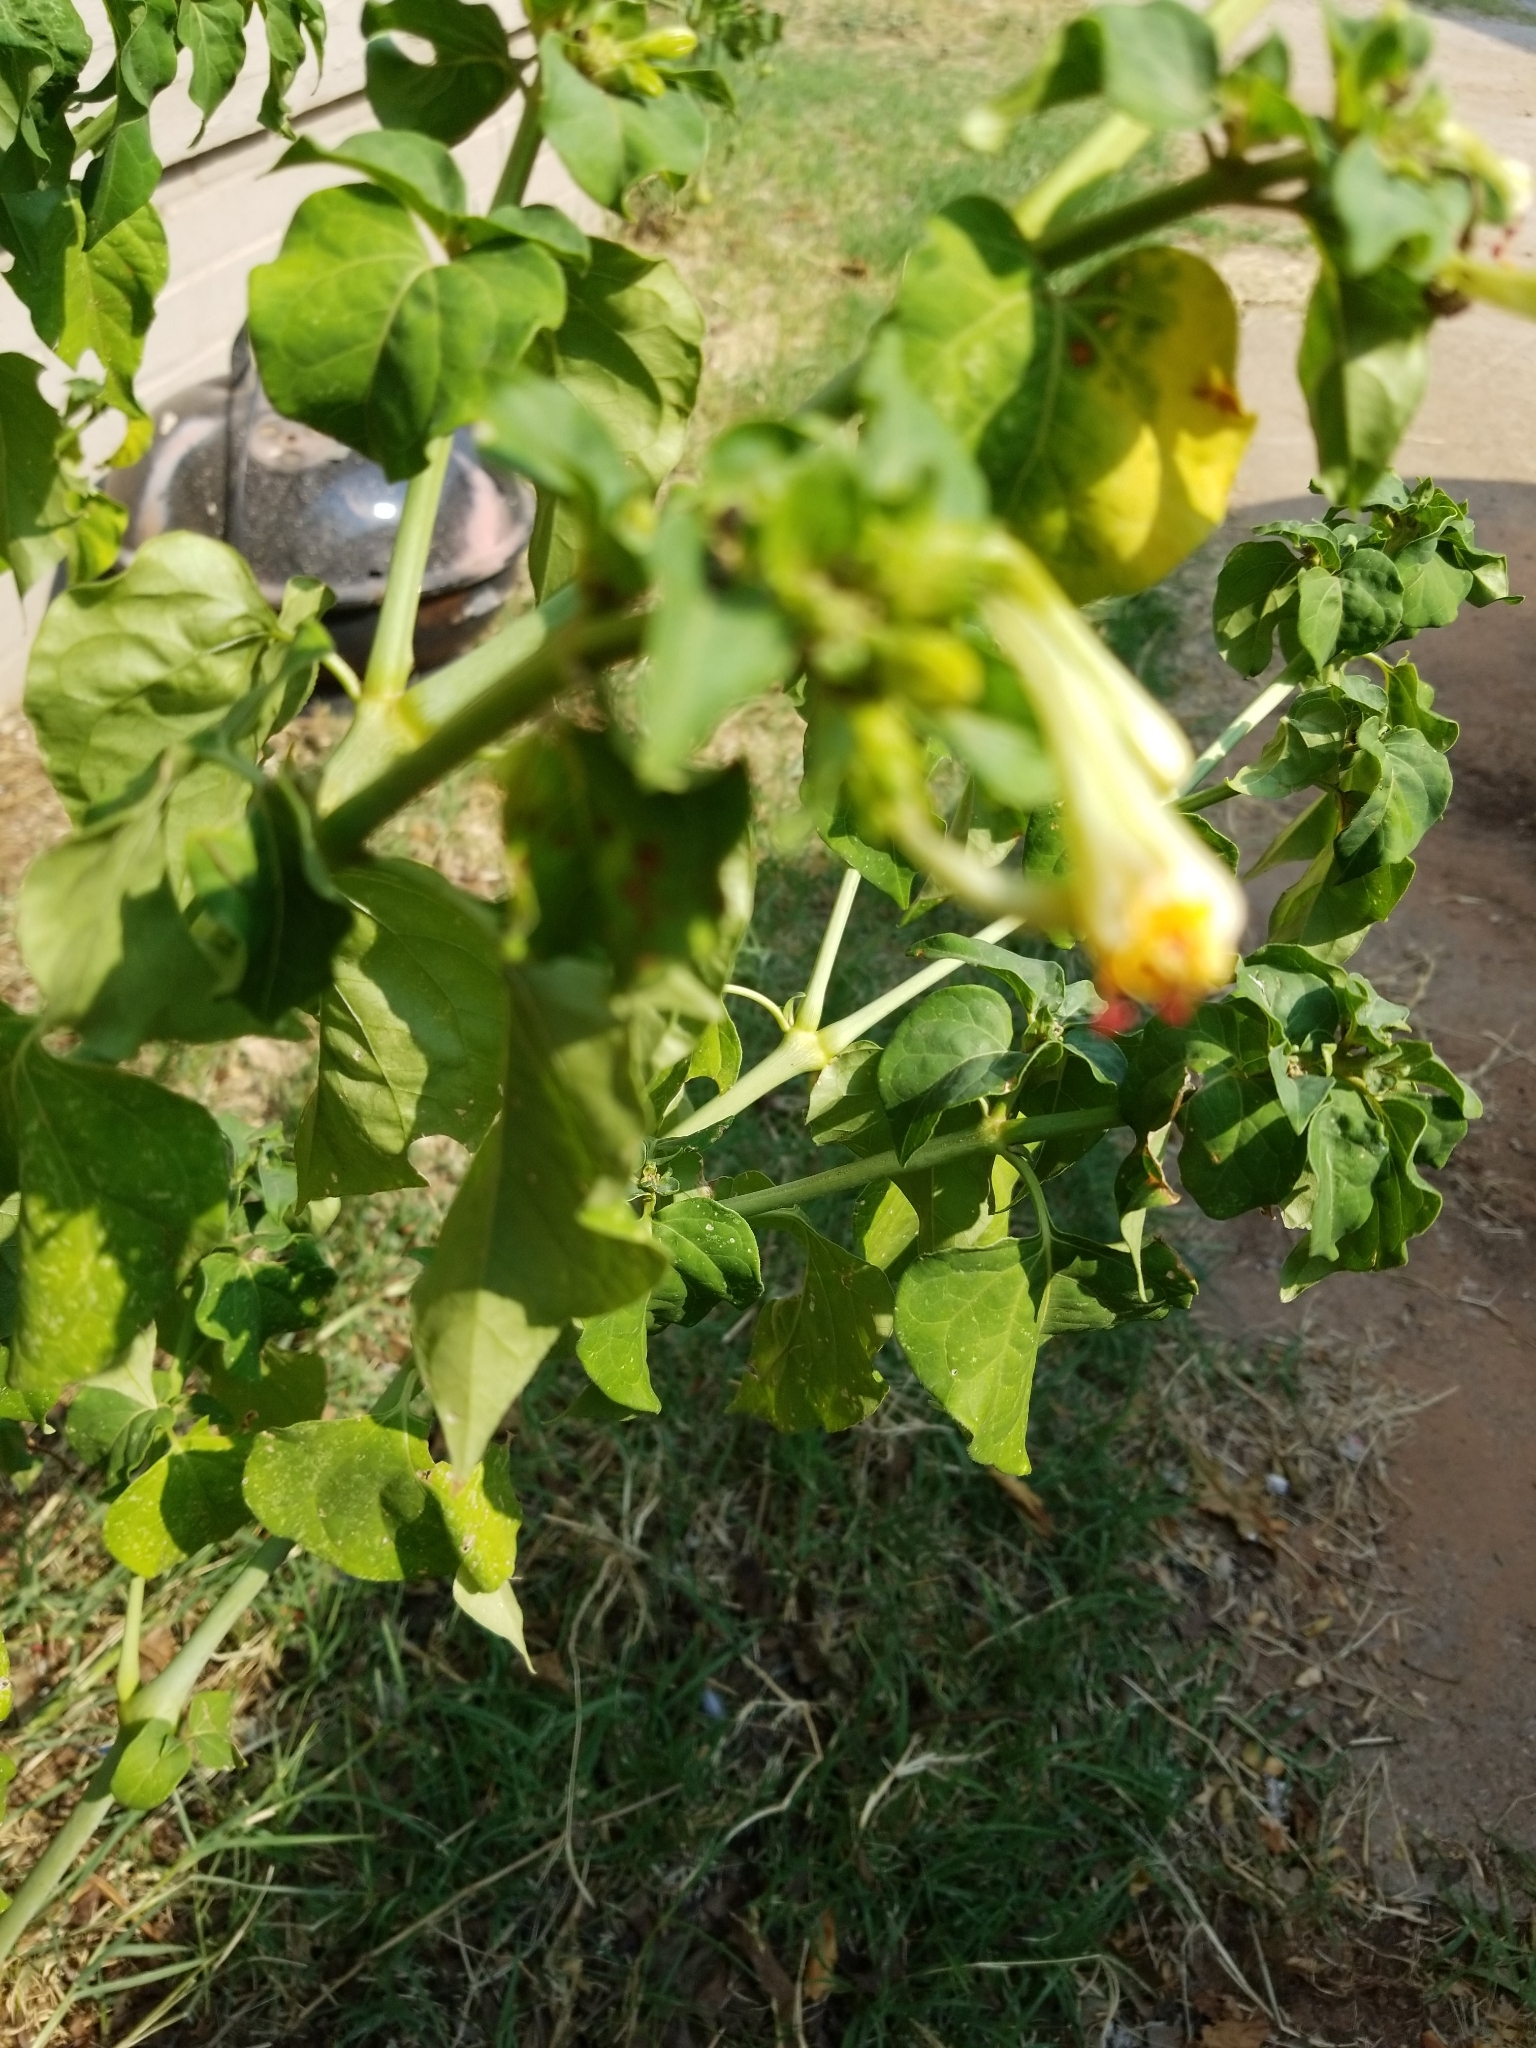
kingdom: Plantae
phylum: Tracheophyta
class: Magnoliopsida
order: Caryophyllales
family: Nyctaginaceae
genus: Mirabilis
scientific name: Mirabilis jalapa
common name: Marvel-of-peru
